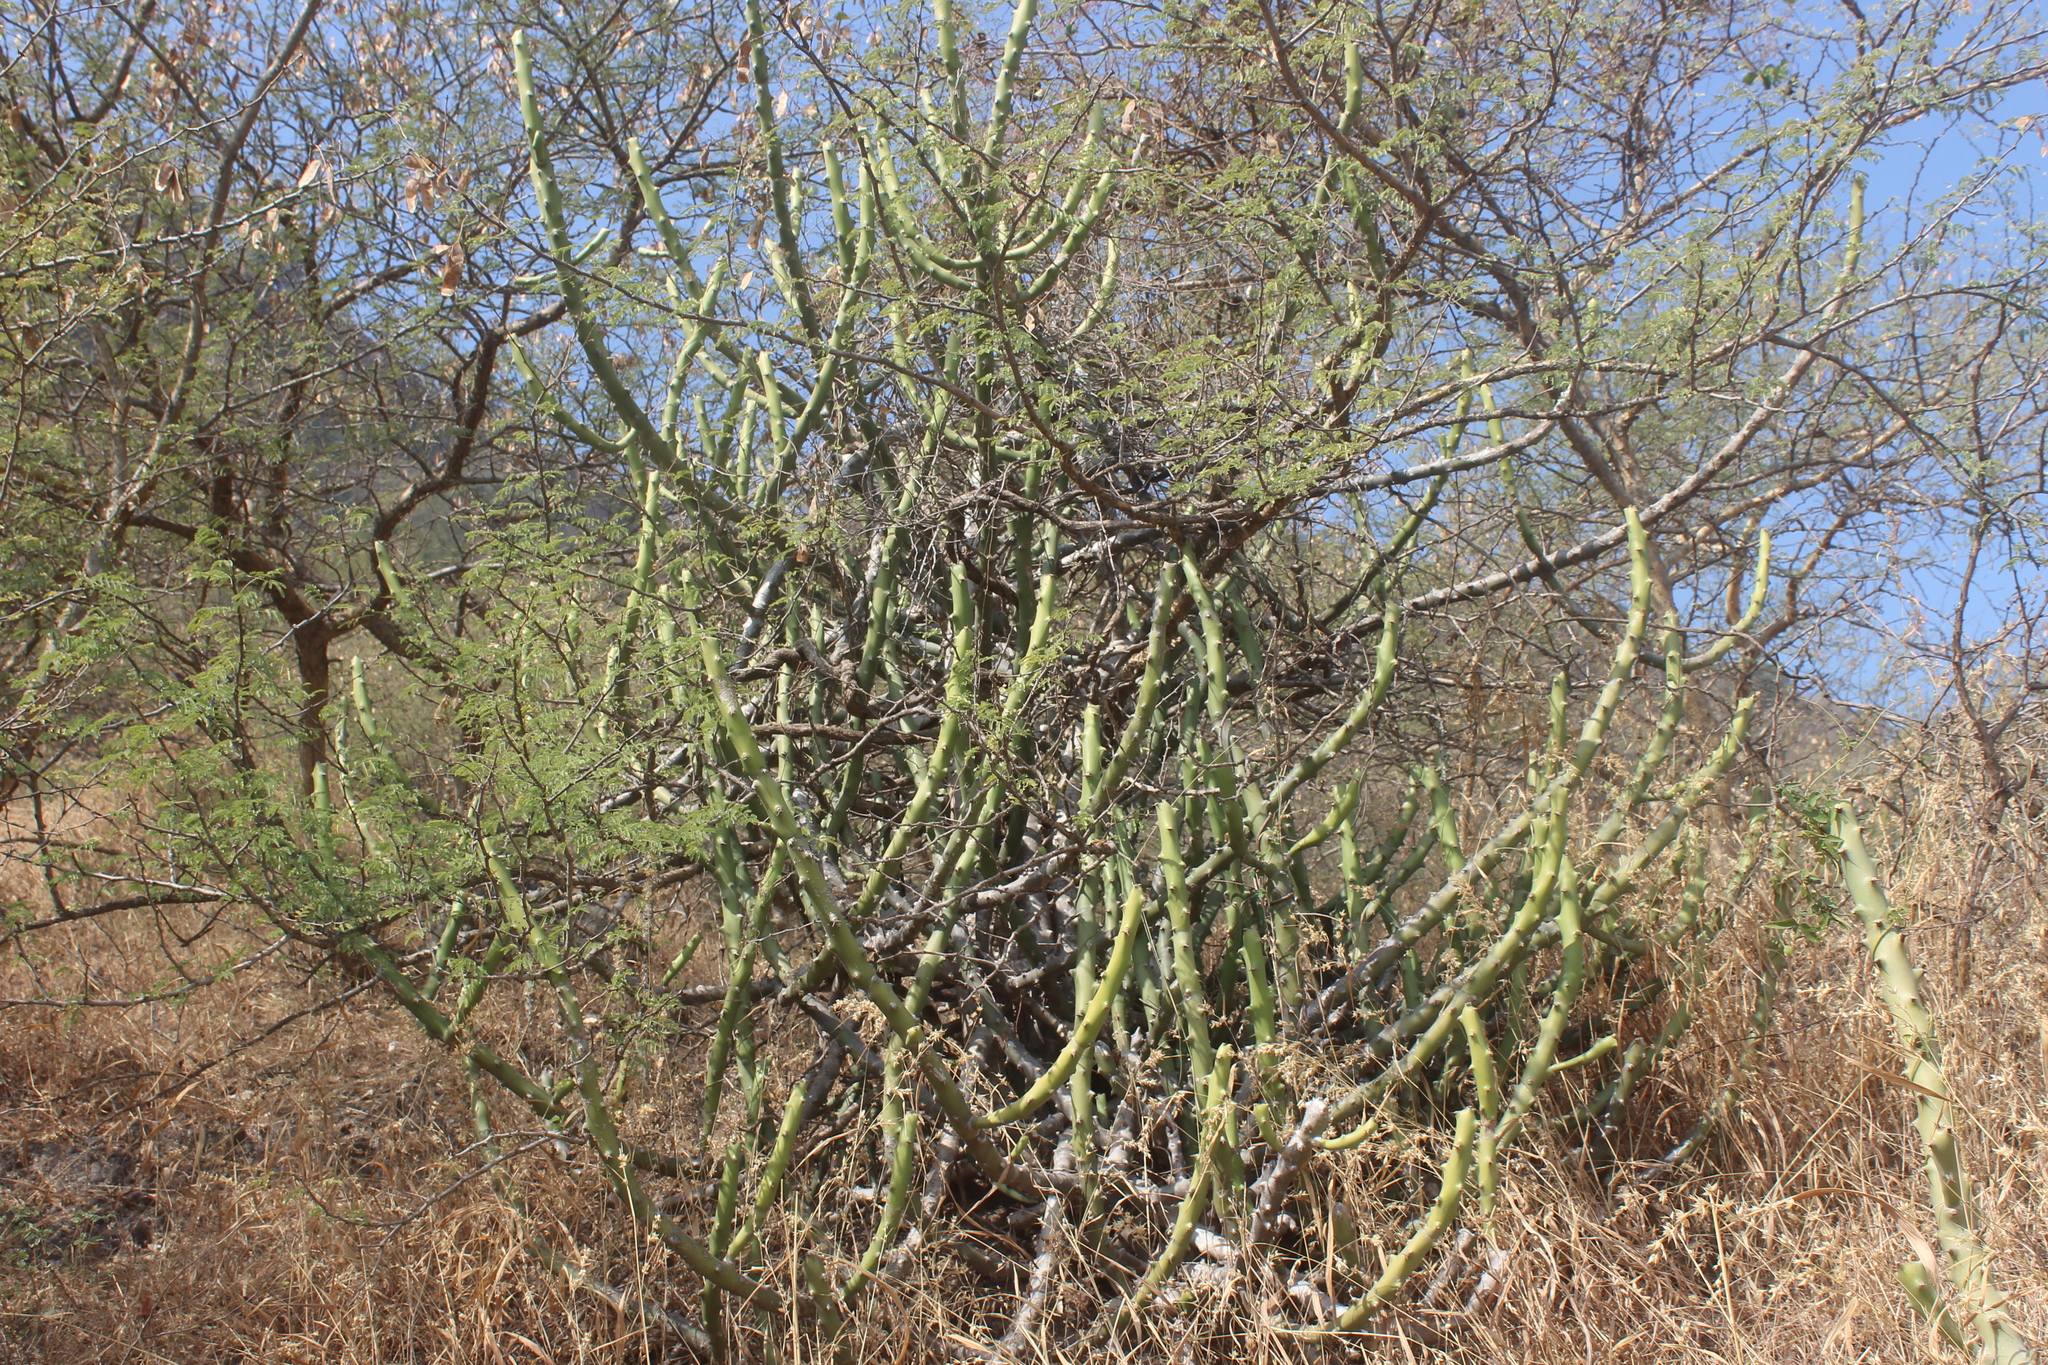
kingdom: Plantae
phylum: Tracheophyta
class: Magnoliopsida
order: Malpighiales
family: Euphorbiaceae
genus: Euphorbia
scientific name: Euphorbia caducifolia
